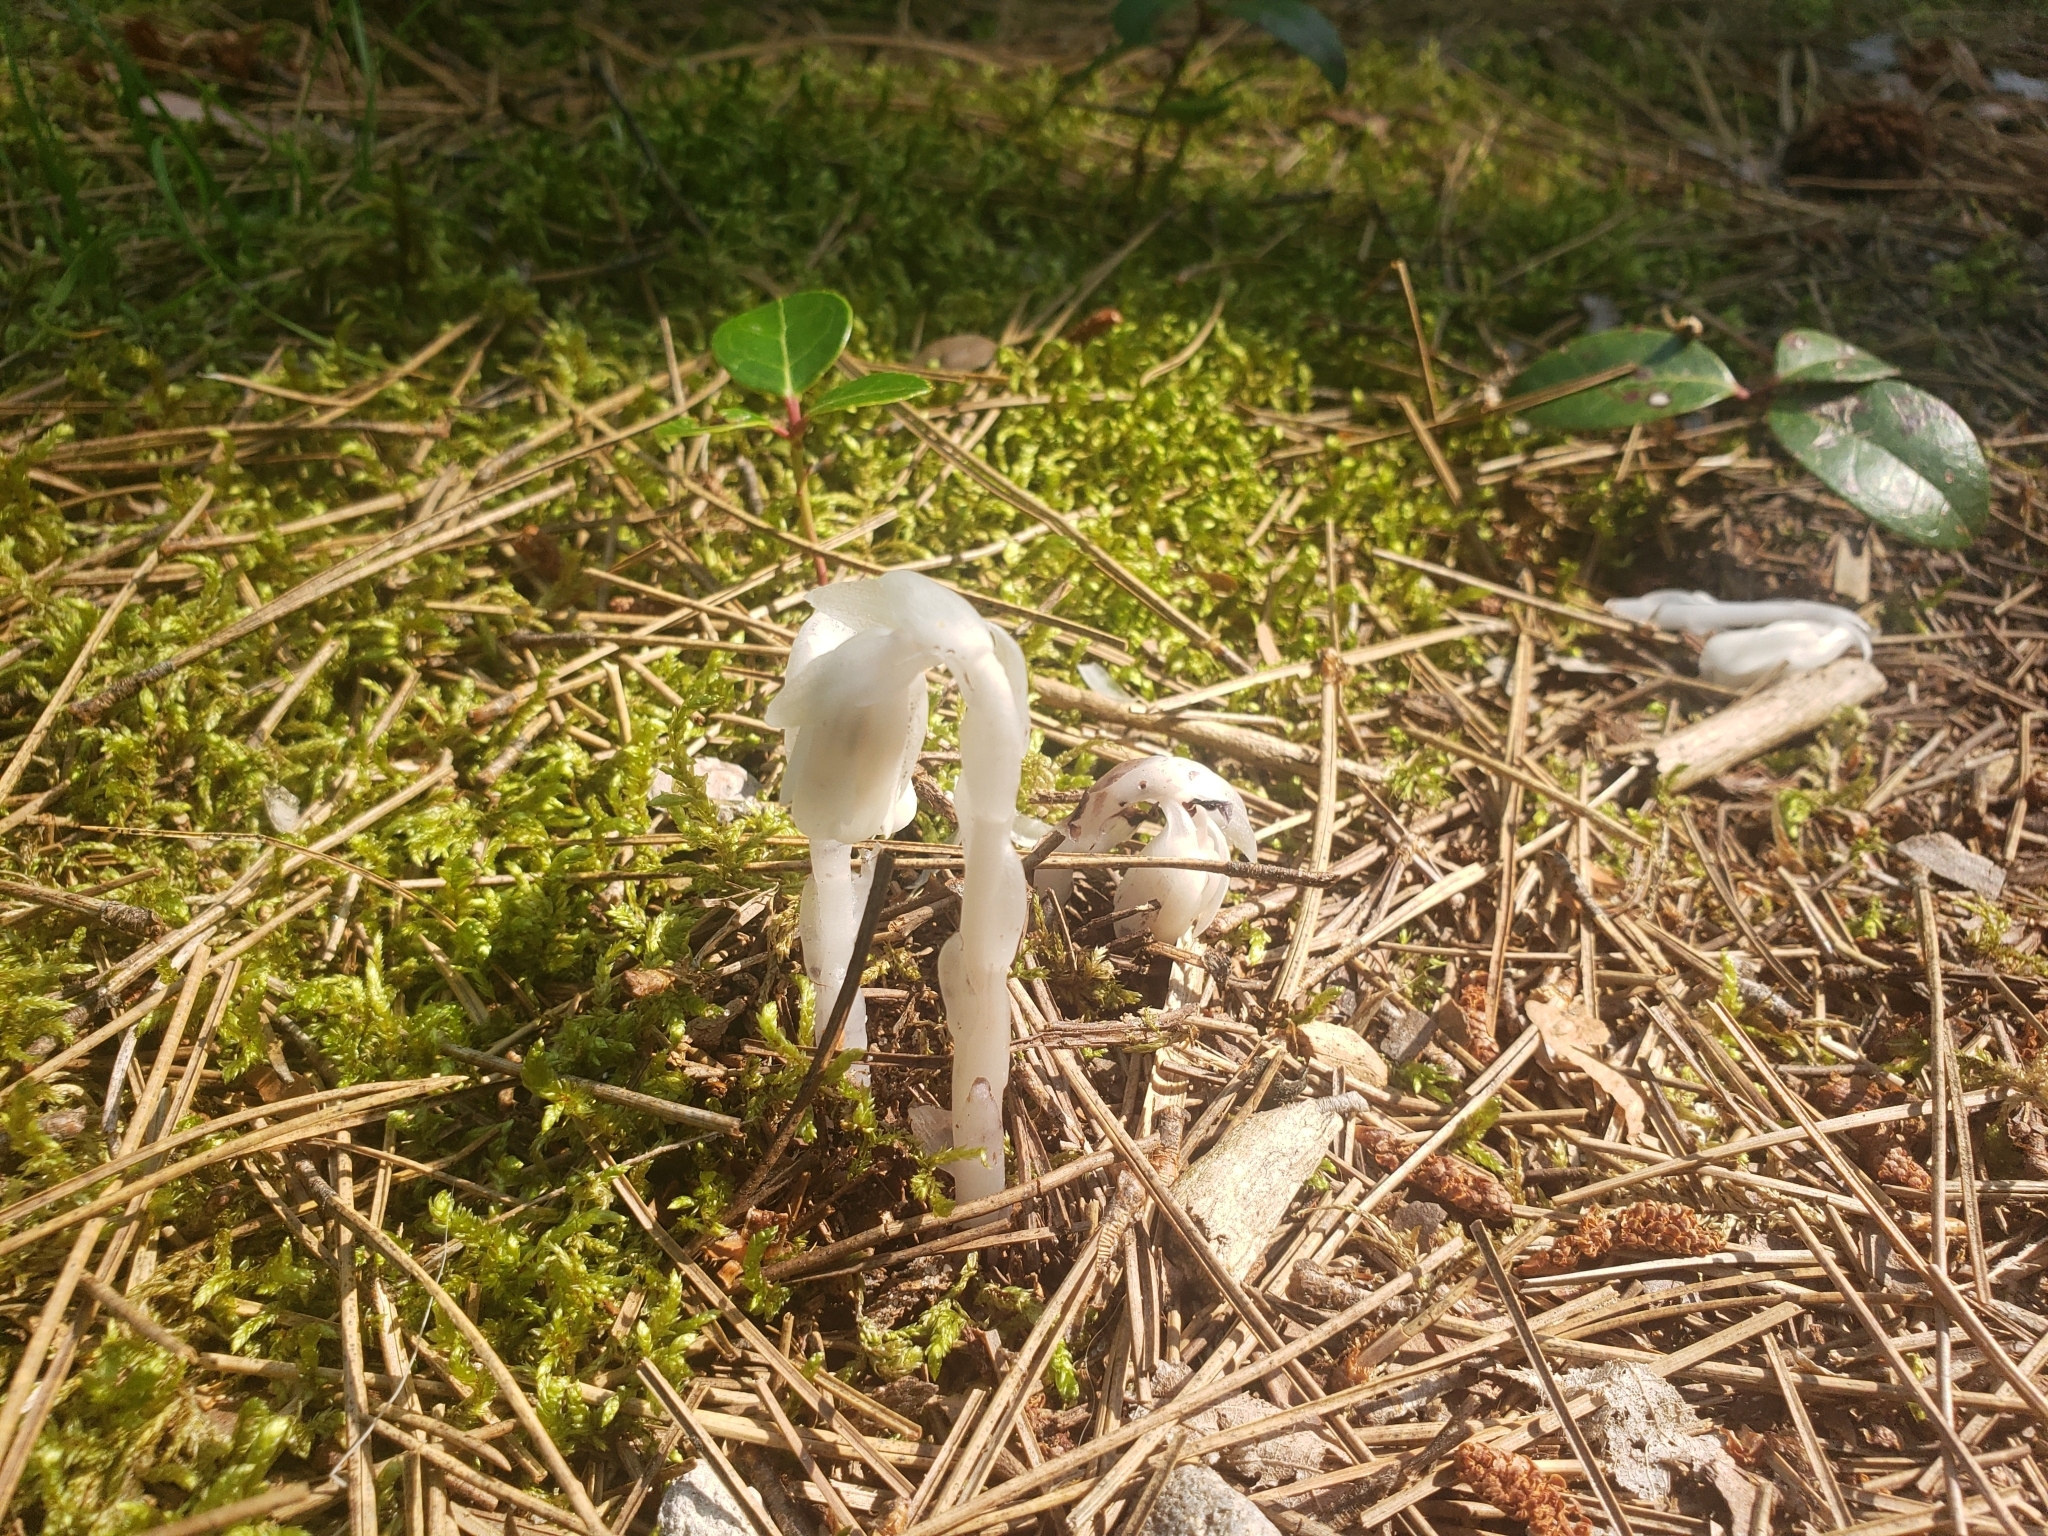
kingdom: Plantae
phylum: Tracheophyta
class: Magnoliopsida
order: Ericales
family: Ericaceae
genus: Monotropa
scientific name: Monotropa uniflora
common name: Convulsion root
